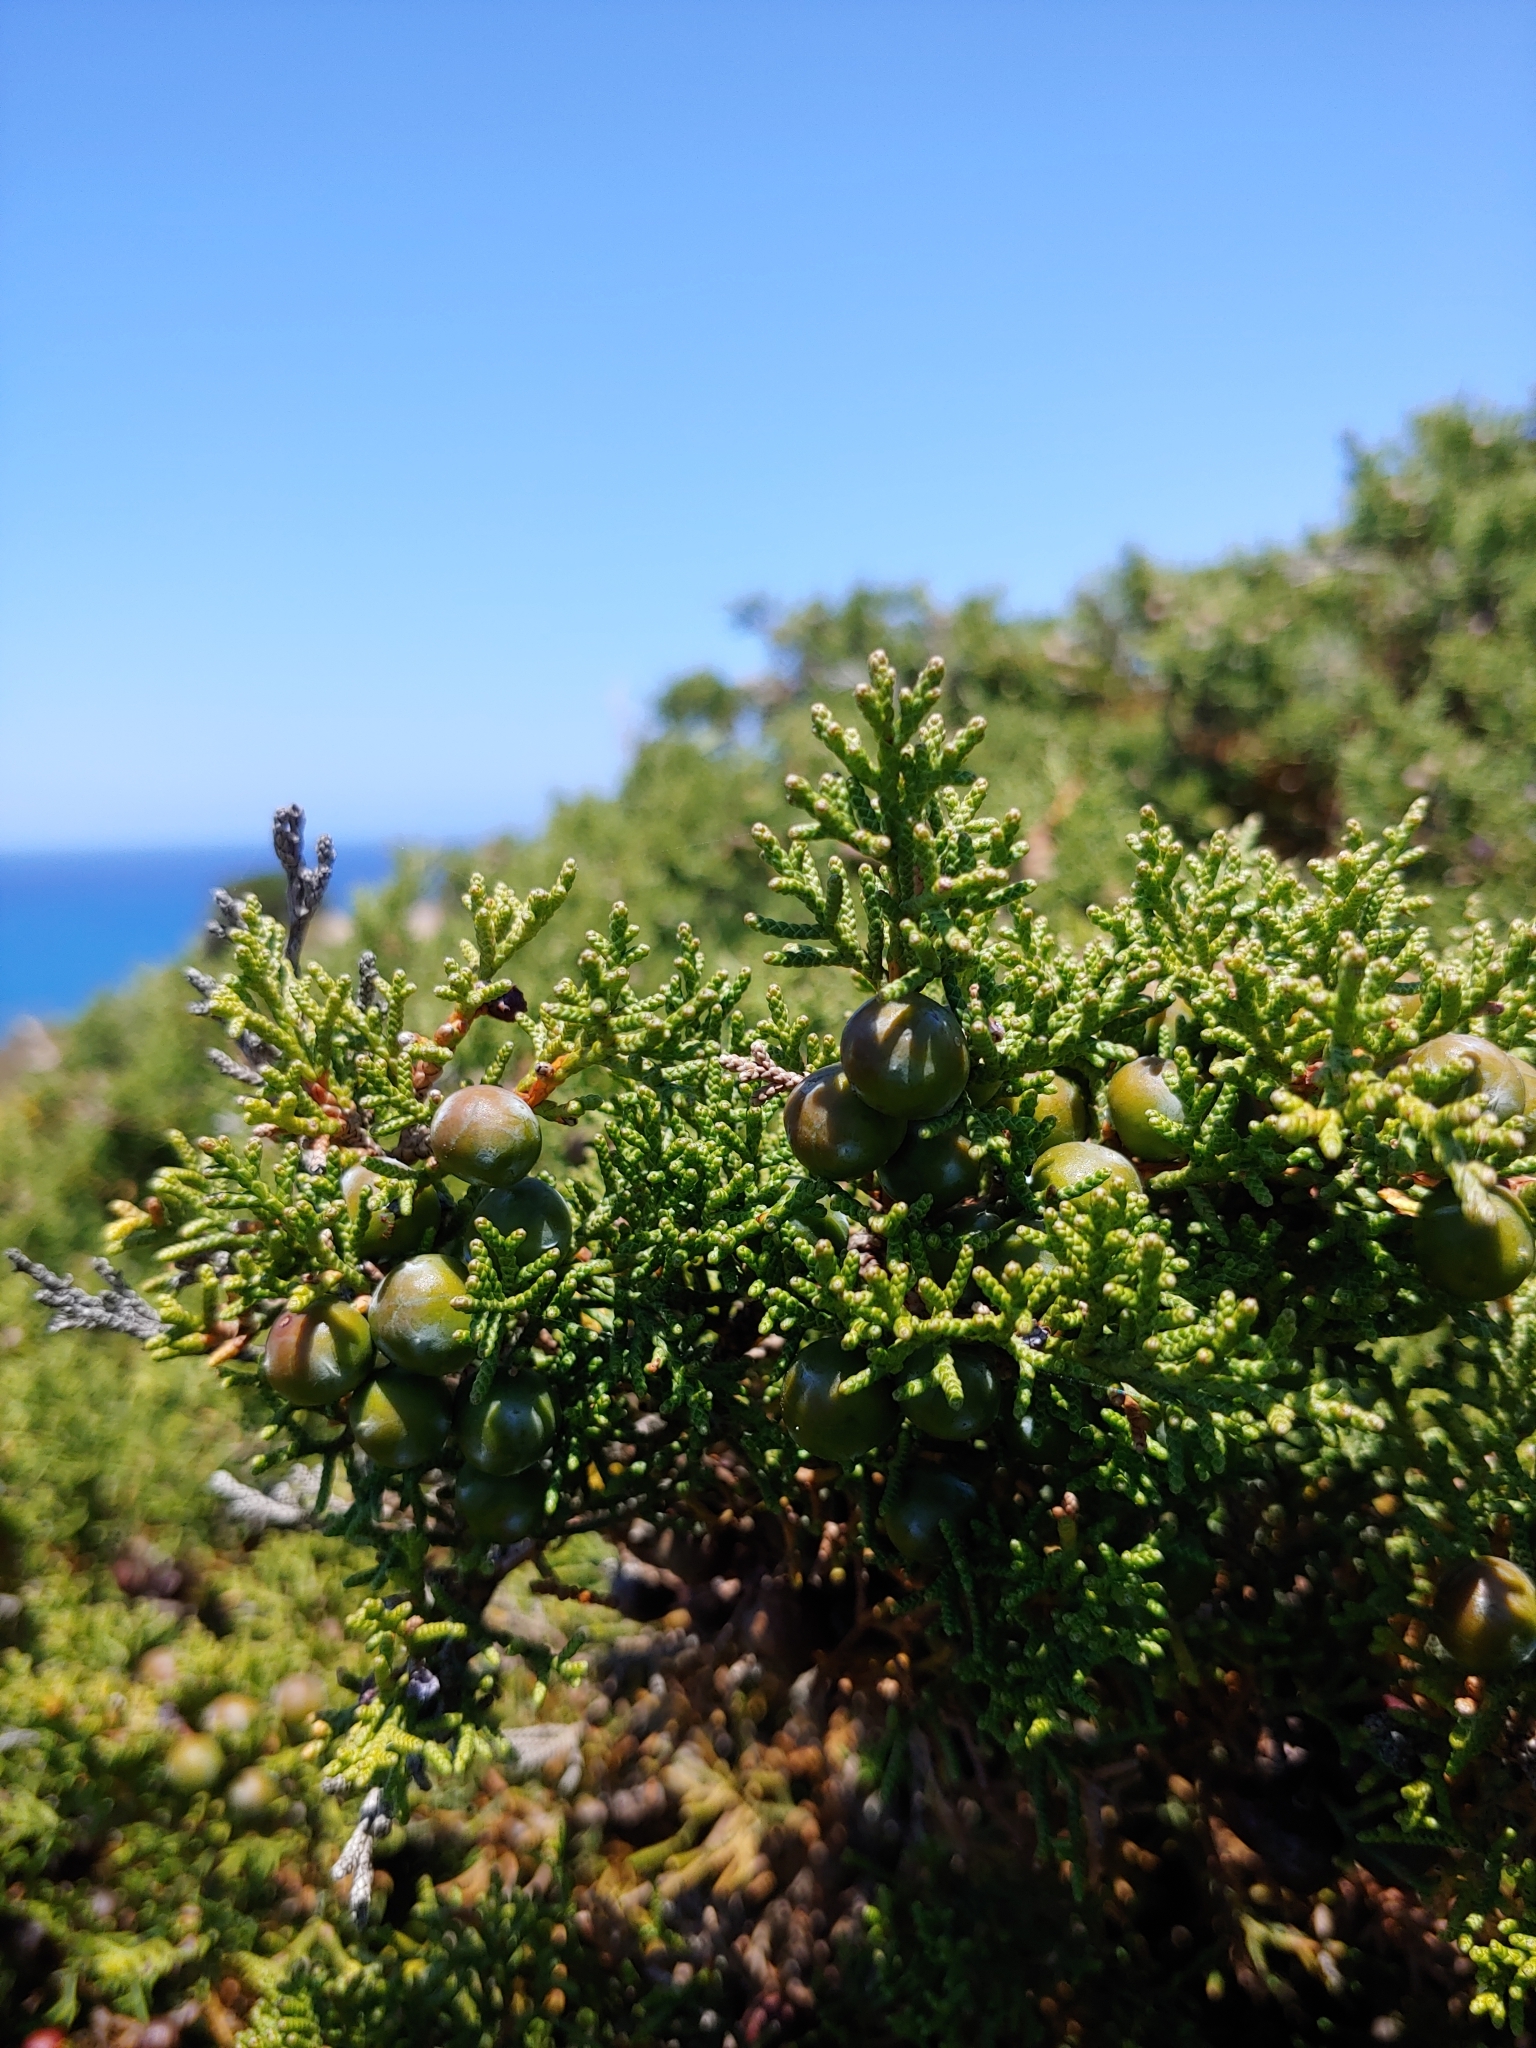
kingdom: Plantae
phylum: Tracheophyta
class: Pinopsida
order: Pinales
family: Cupressaceae
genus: Juniperus
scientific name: Juniperus phoenicea
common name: Phoenician juniper
